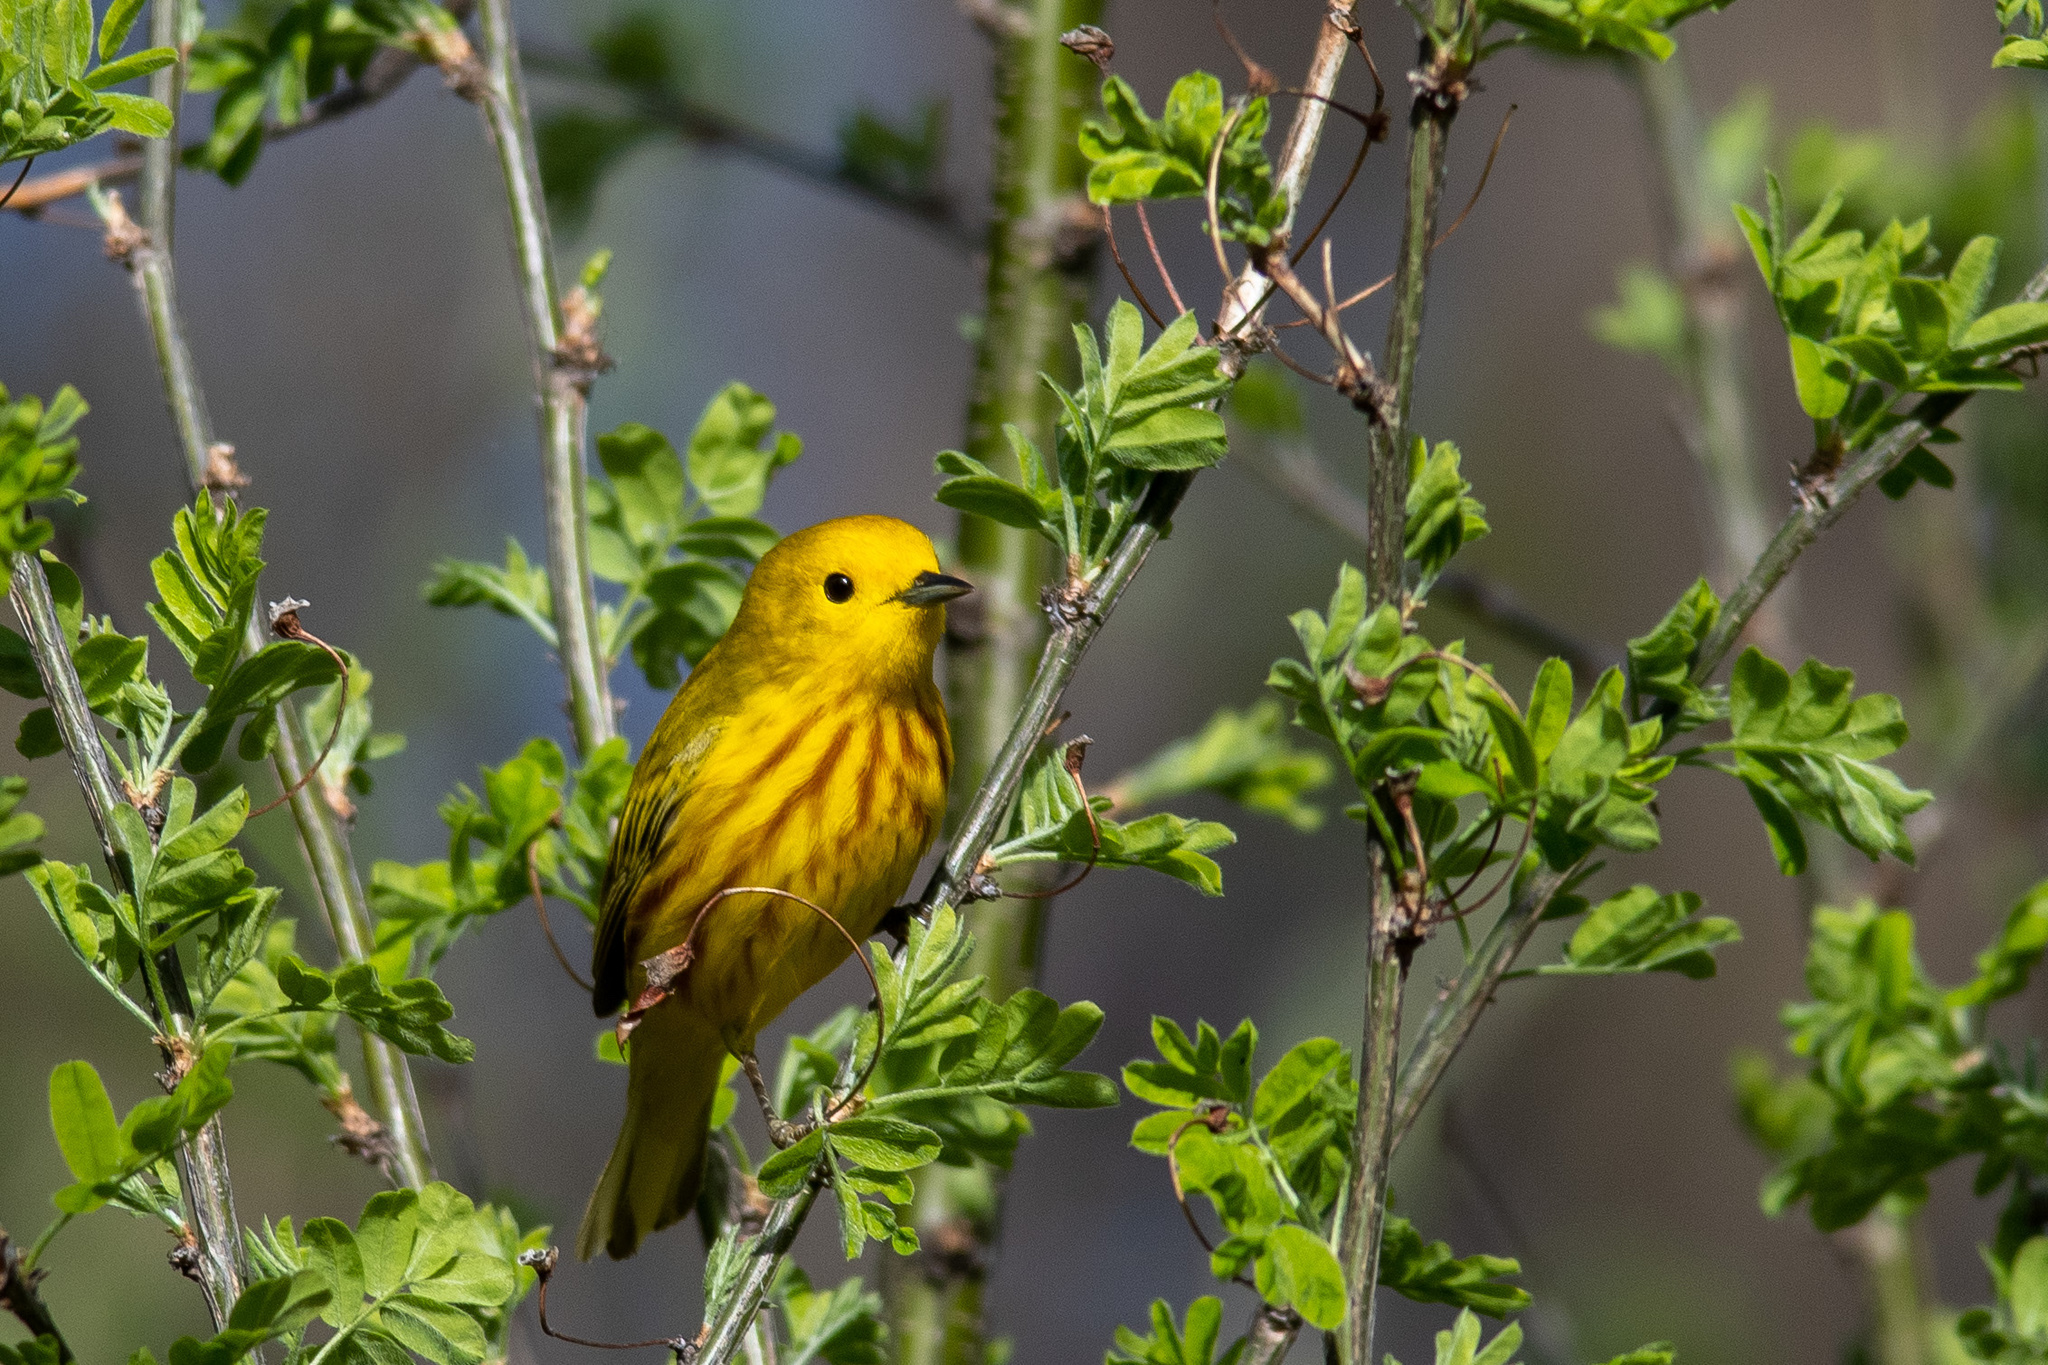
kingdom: Animalia
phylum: Chordata
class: Aves
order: Passeriformes
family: Parulidae
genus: Setophaga
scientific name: Setophaga petechia
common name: Yellow warbler
